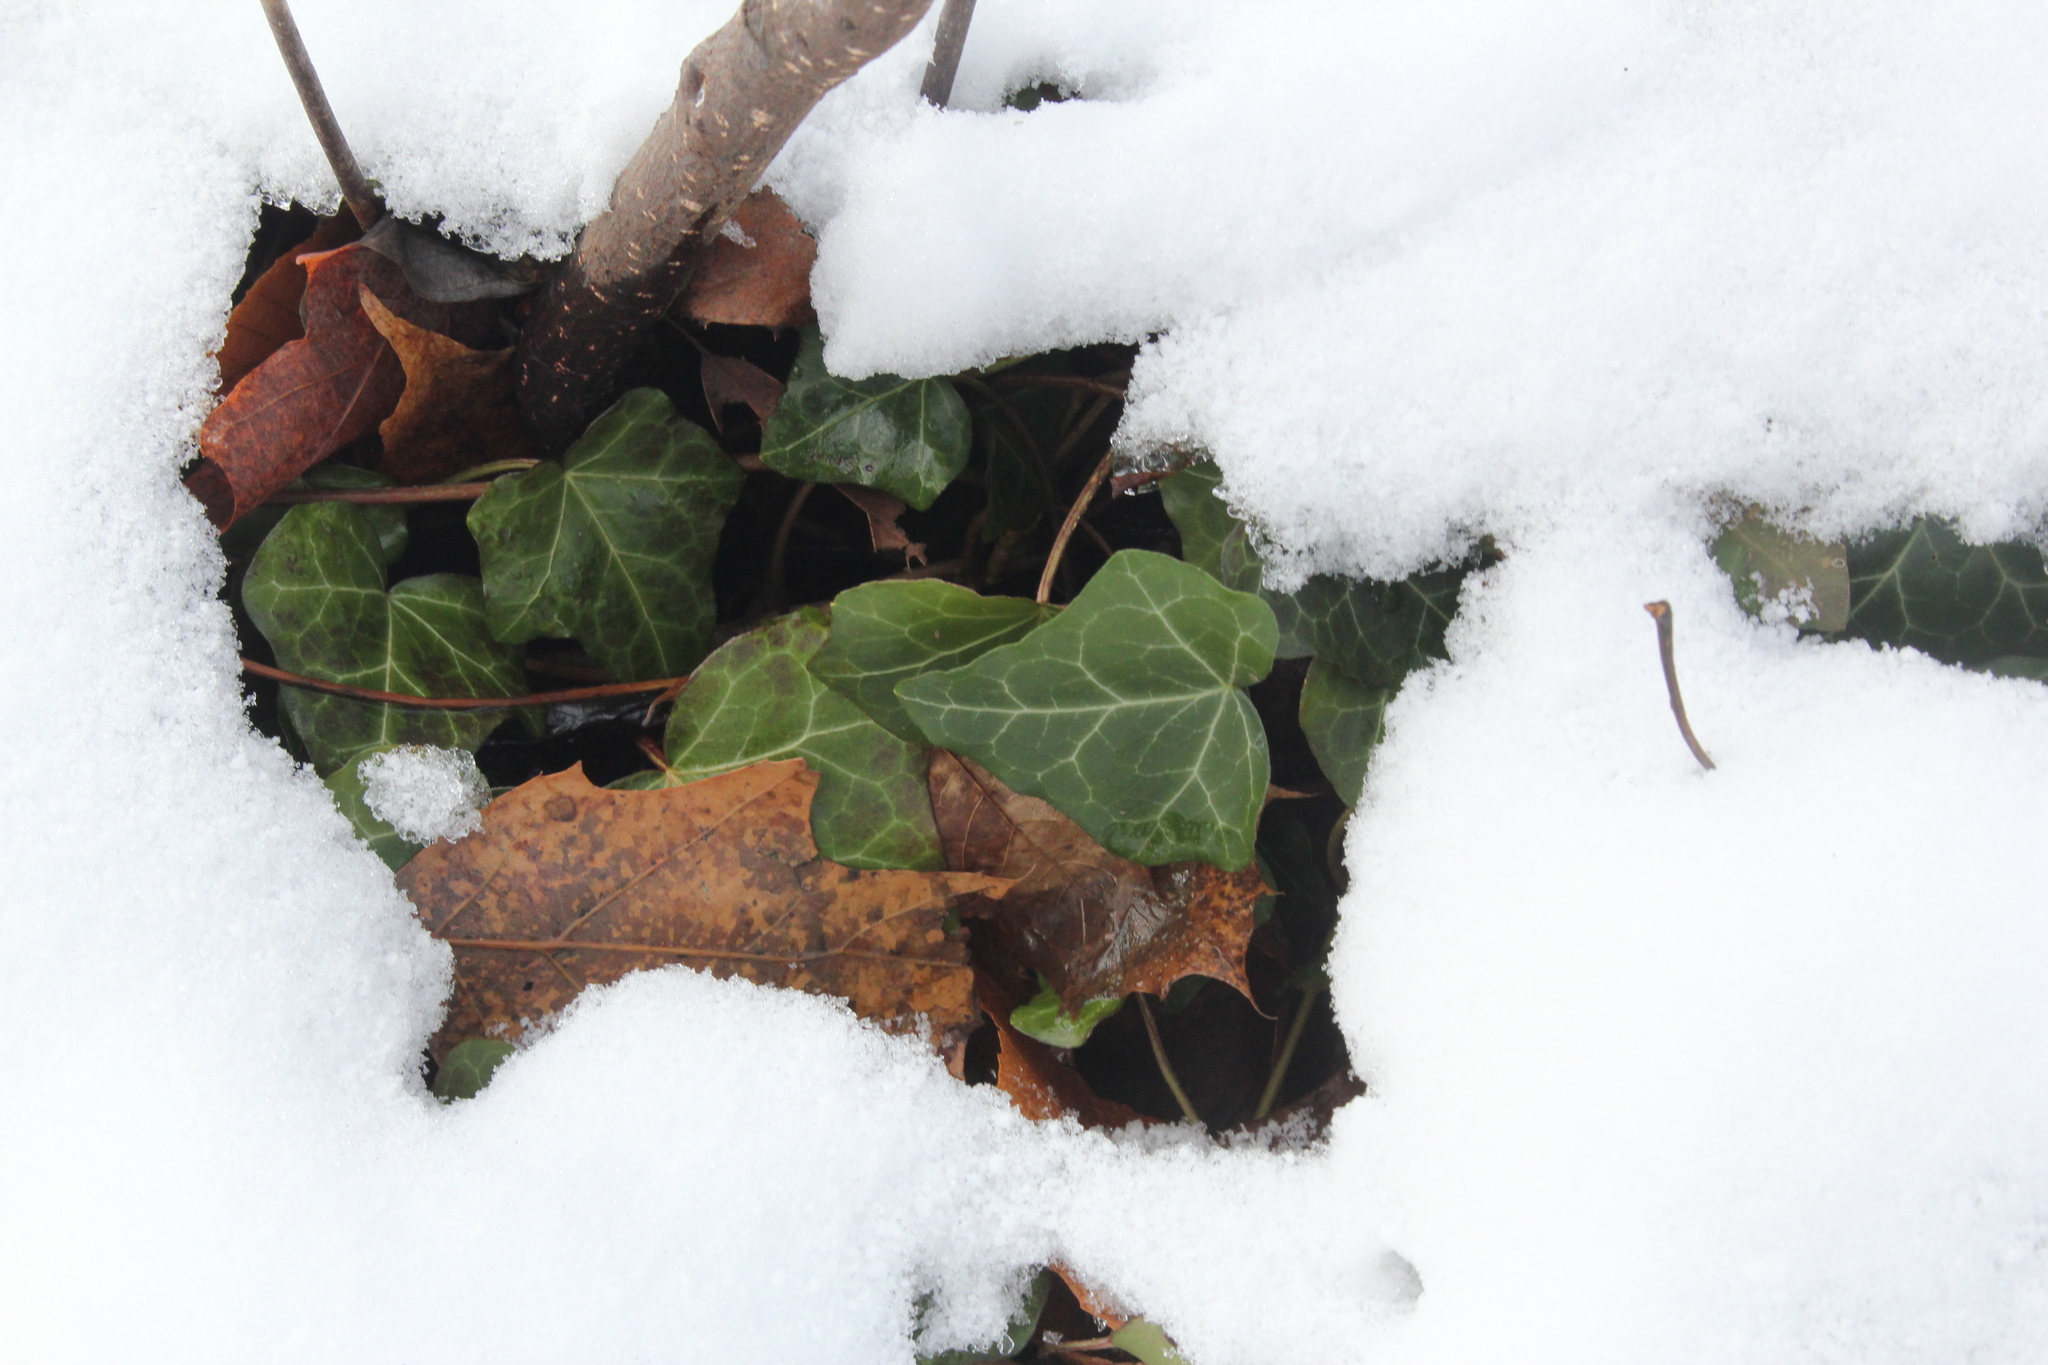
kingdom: Plantae
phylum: Tracheophyta
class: Magnoliopsida
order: Apiales
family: Araliaceae
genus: Hedera
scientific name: Hedera helix
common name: Ivy
